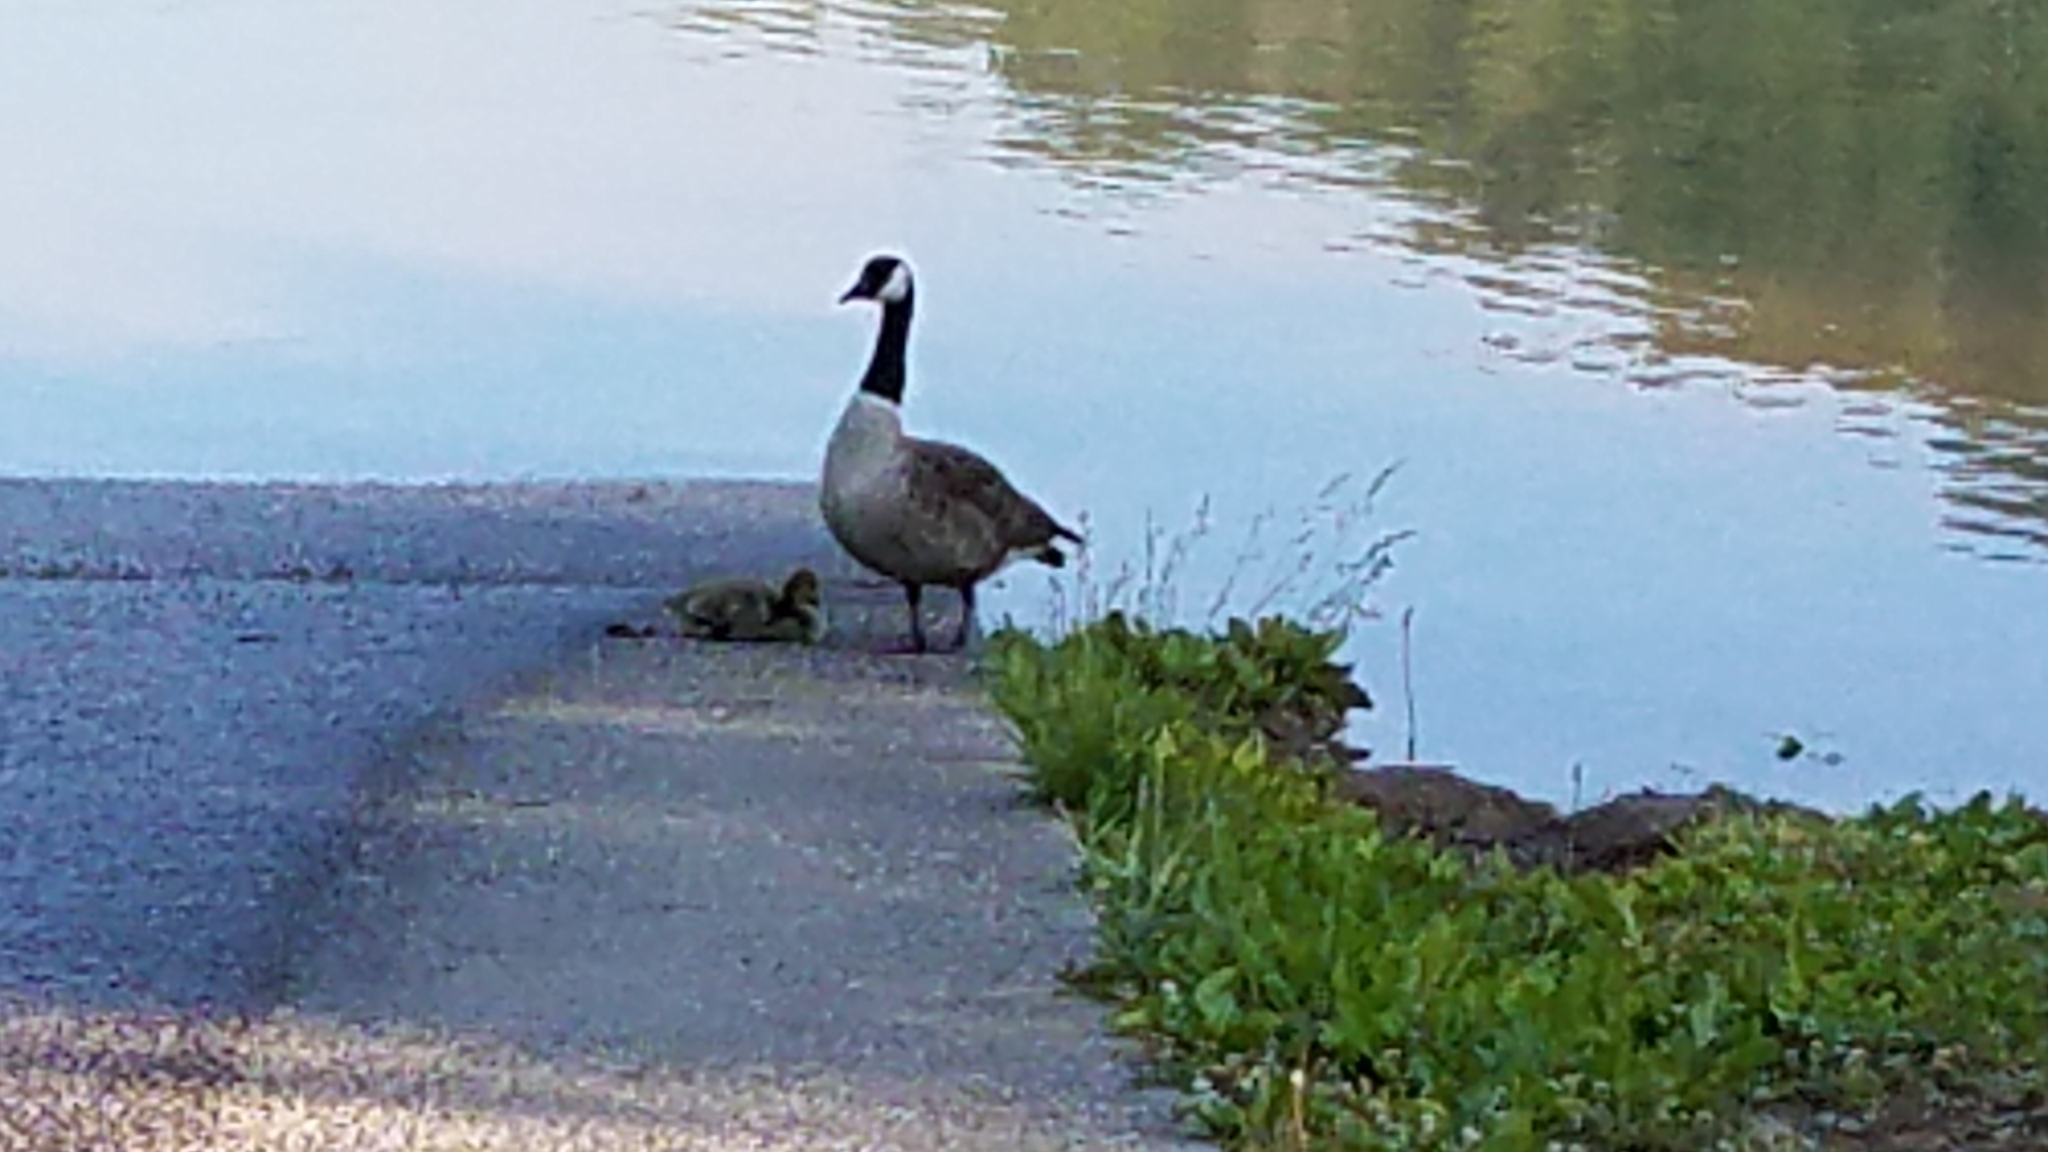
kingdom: Animalia
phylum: Chordata
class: Aves
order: Anseriformes
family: Anatidae
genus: Branta
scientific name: Branta canadensis
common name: Canada goose
